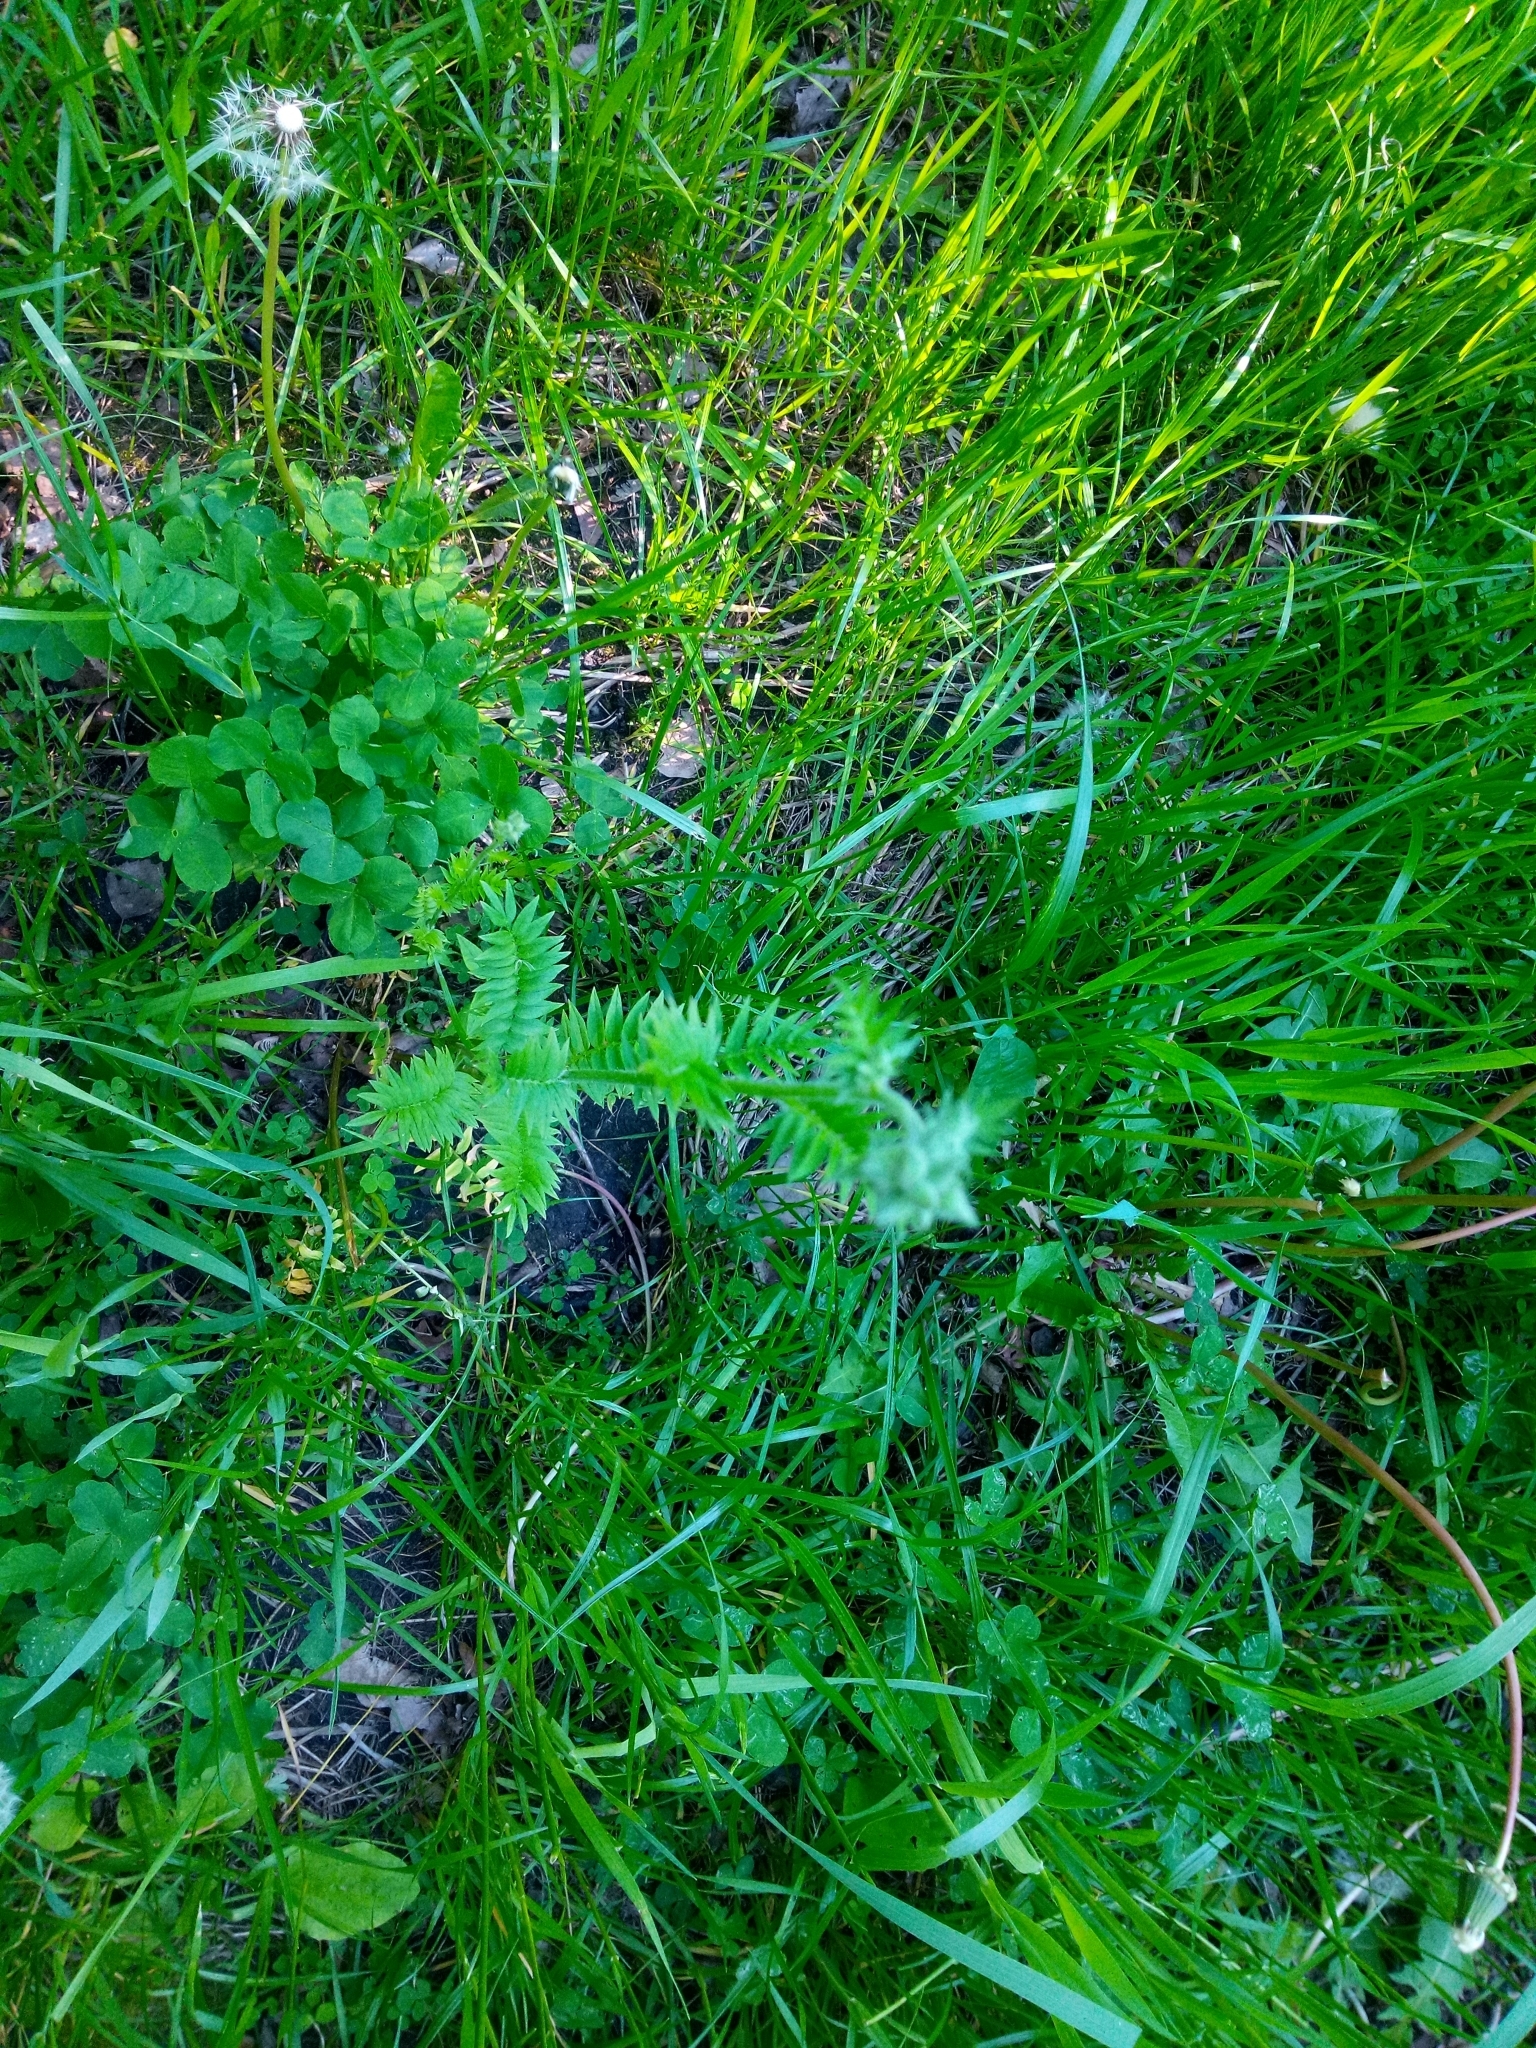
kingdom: Plantae
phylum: Tracheophyta
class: Magnoliopsida
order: Ericales
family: Polemoniaceae
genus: Polemonium
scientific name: Polemonium caeruleum
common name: Jacob's-ladder
